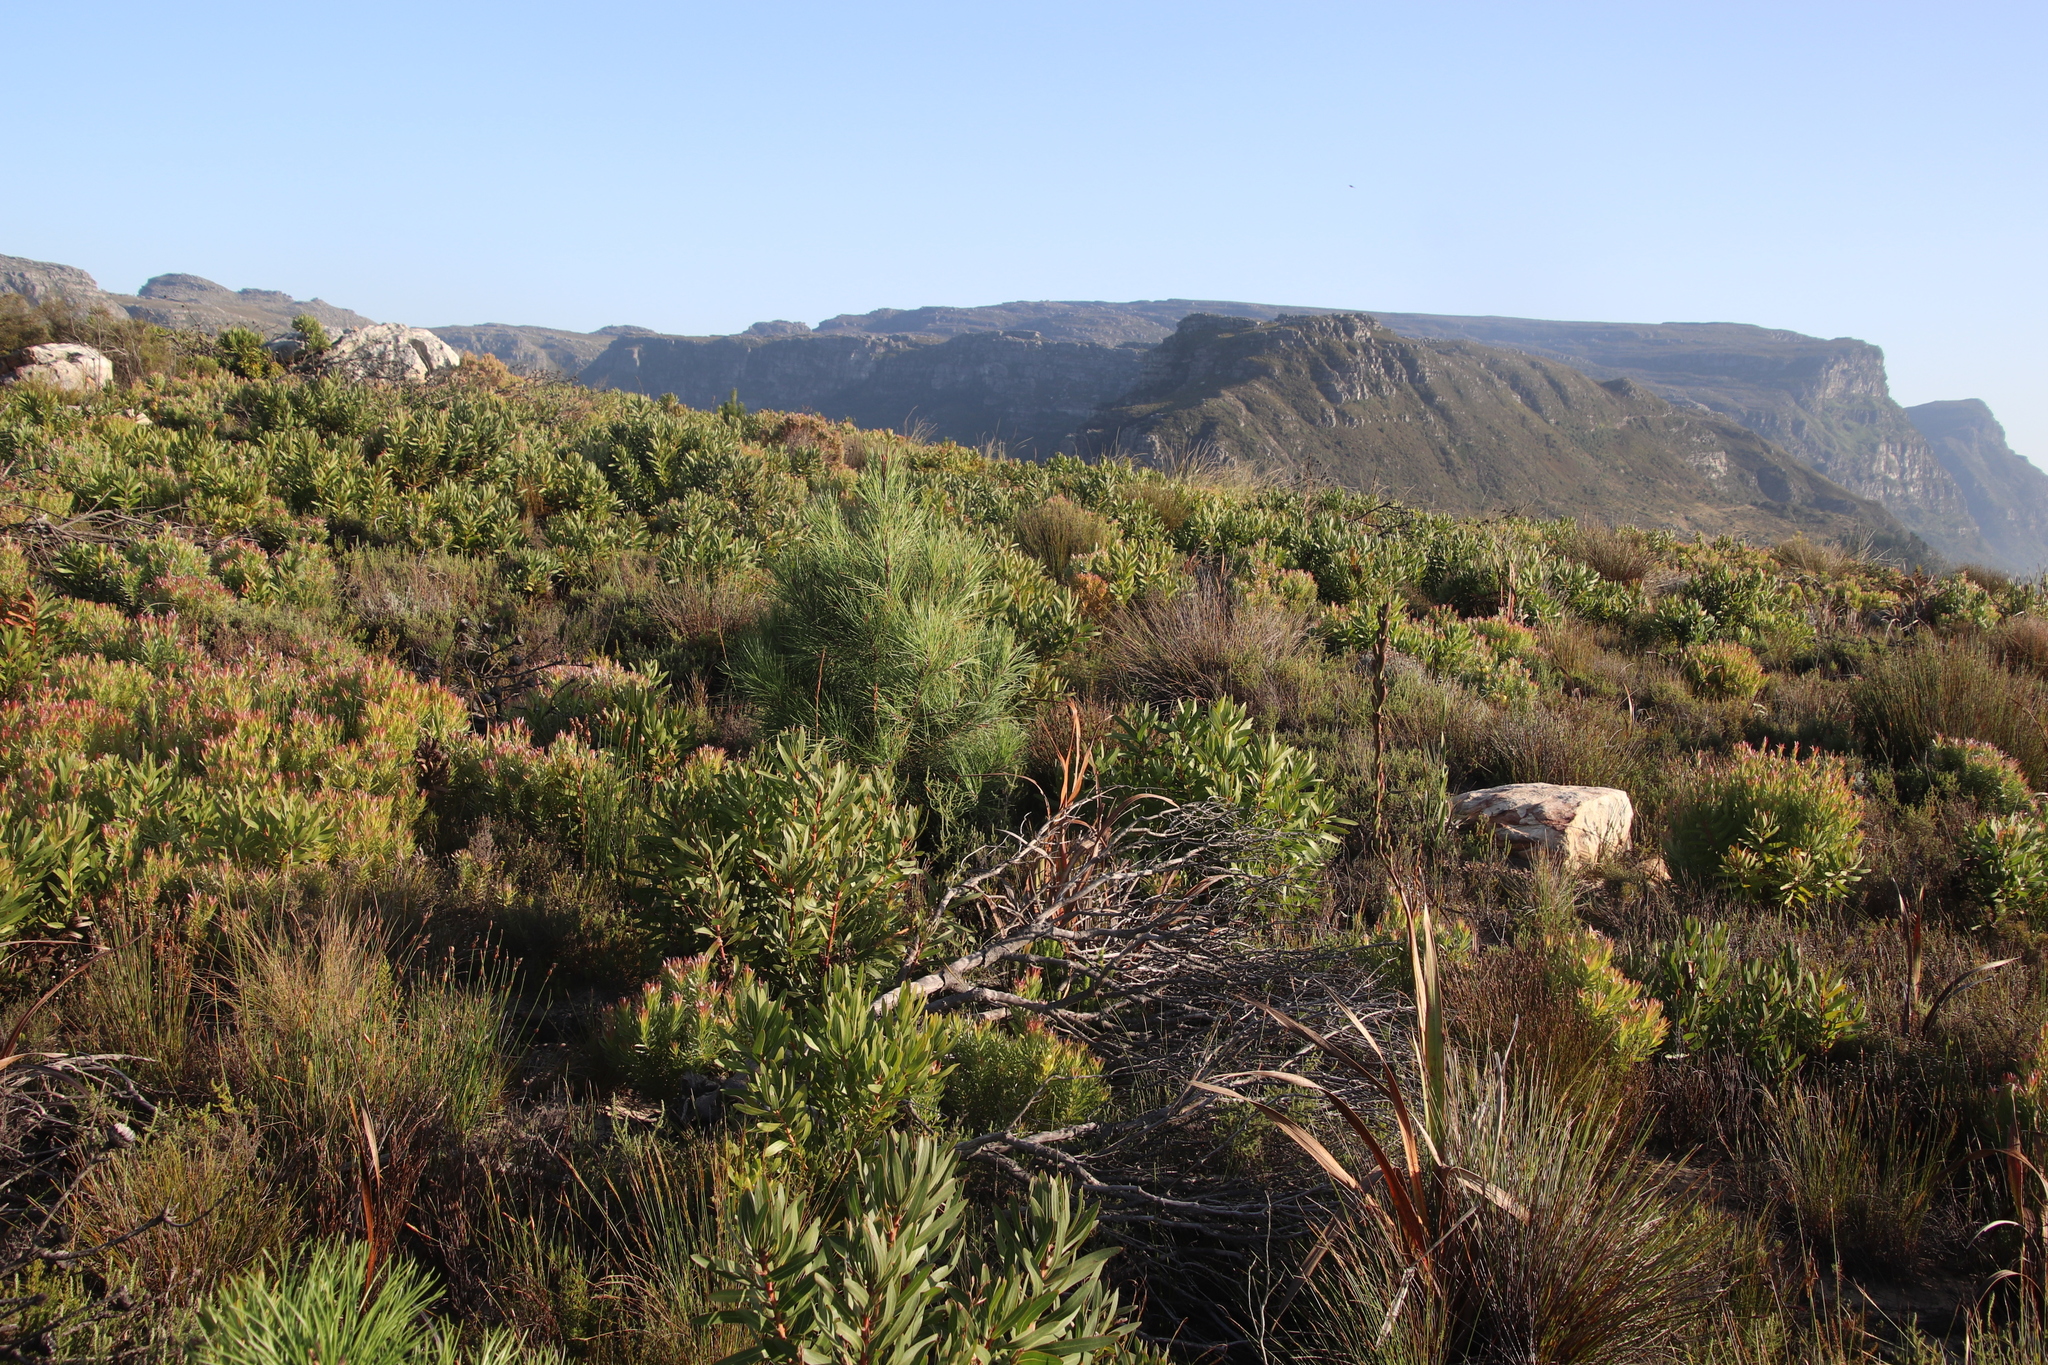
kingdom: Plantae
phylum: Tracheophyta
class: Pinopsida
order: Pinales
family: Pinaceae
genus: Pinus
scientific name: Pinus pinaster
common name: Maritime pine
